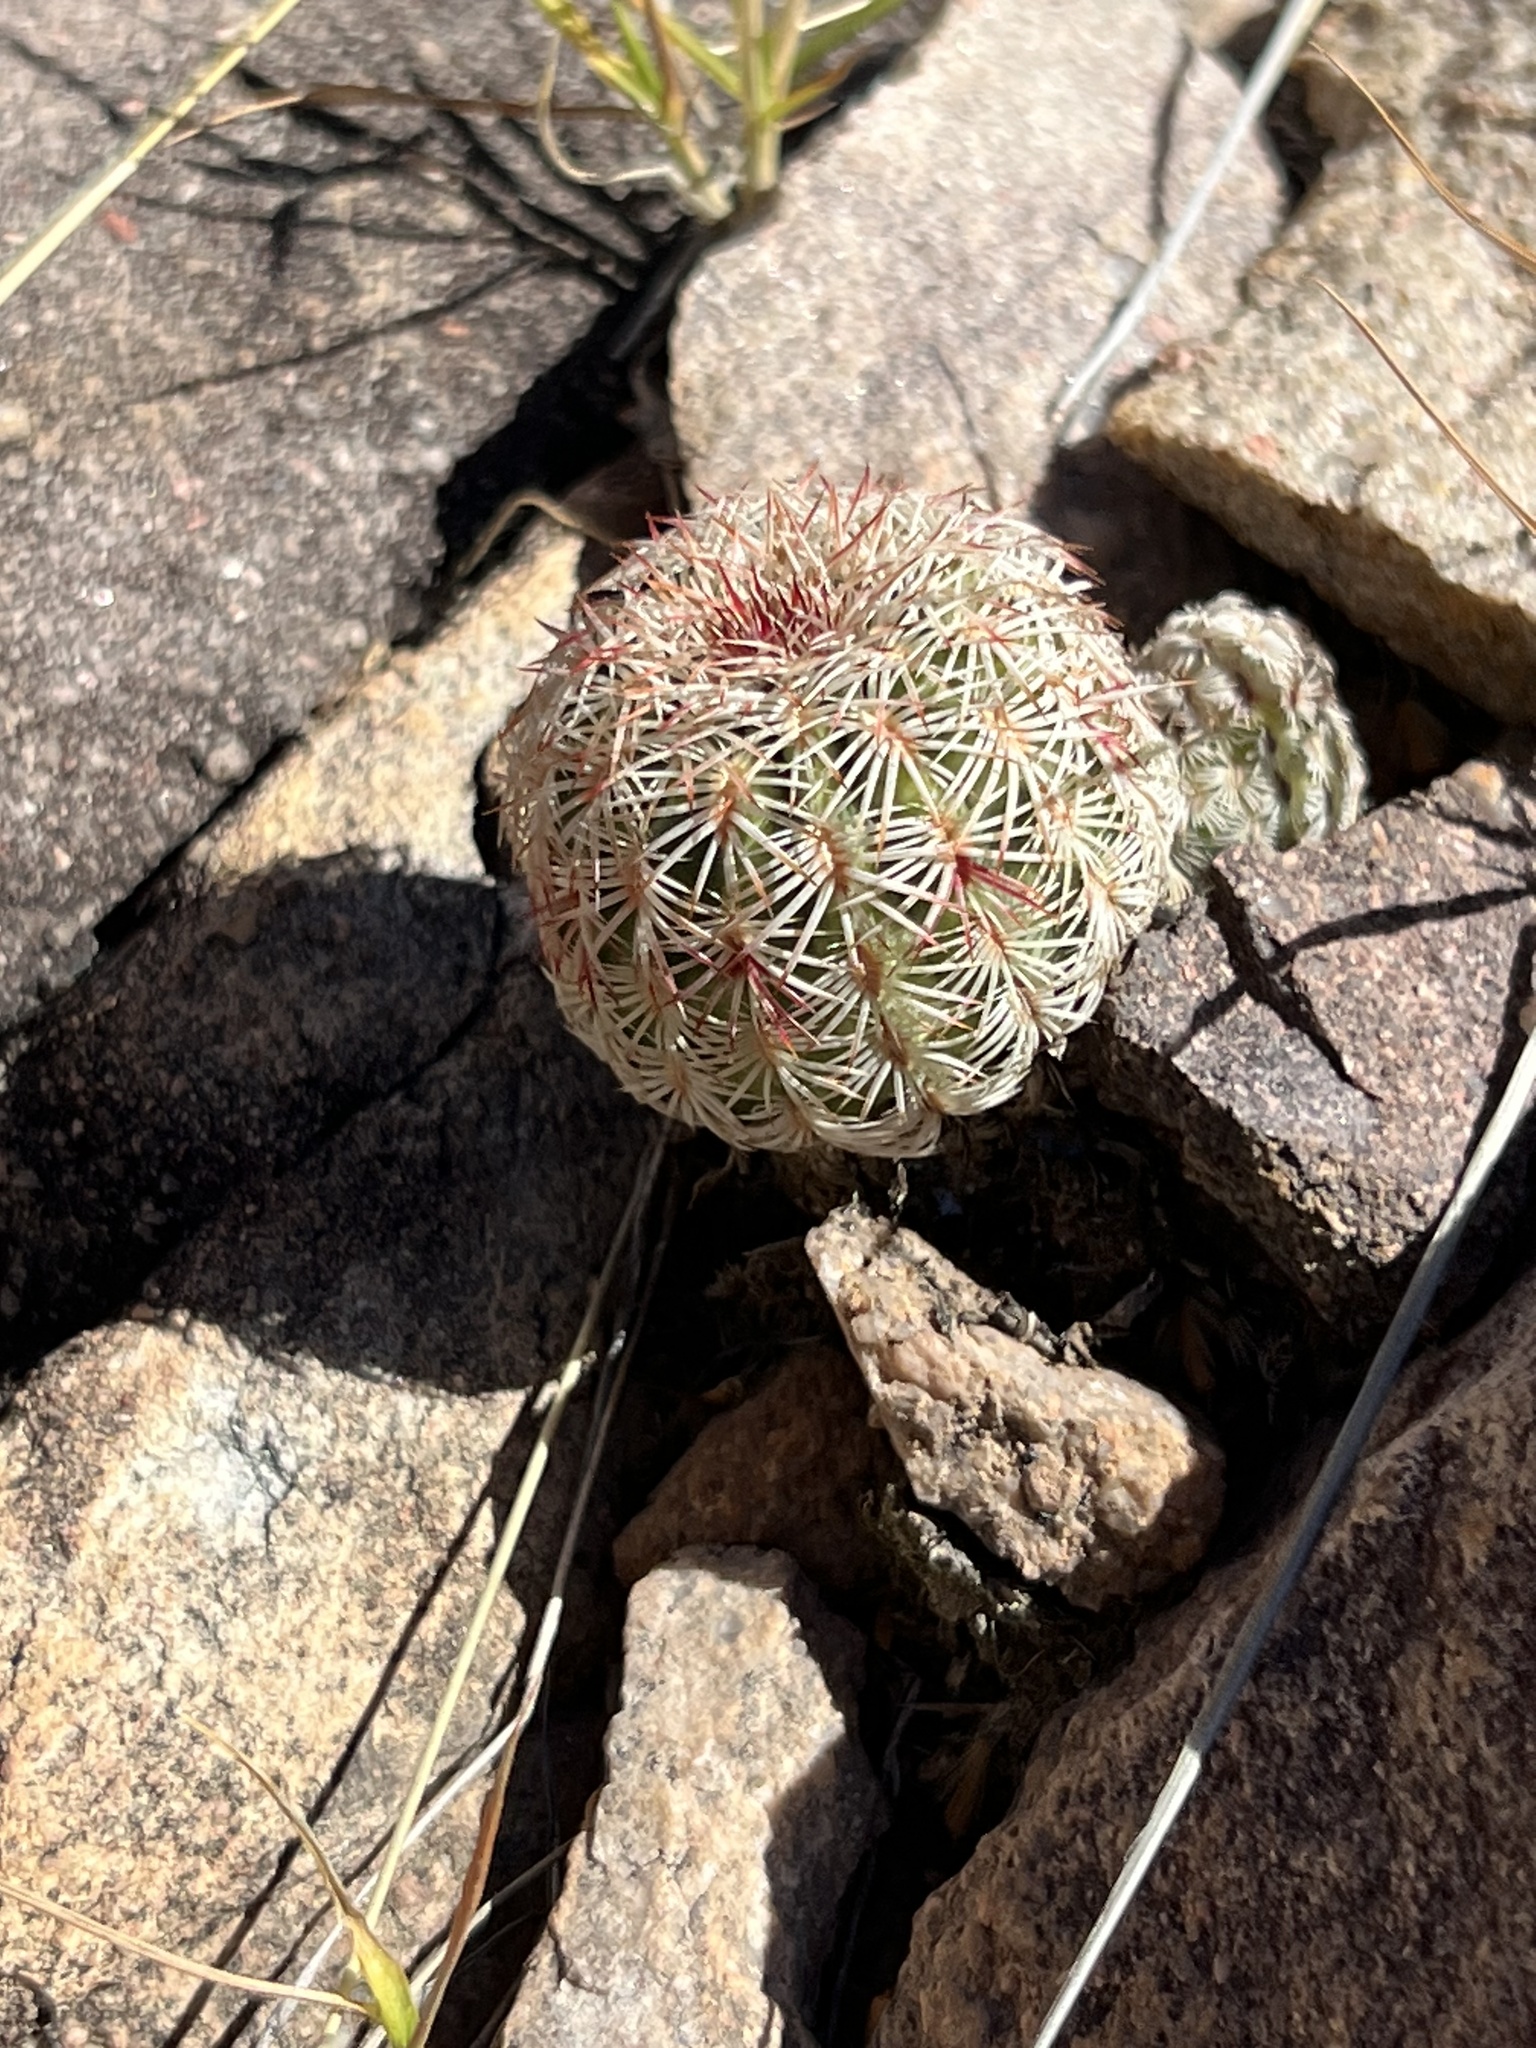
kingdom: Plantae
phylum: Tracheophyta
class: Magnoliopsida
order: Caryophyllales
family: Cactaceae
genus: Echinocereus
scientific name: Echinocereus rigidissimus
